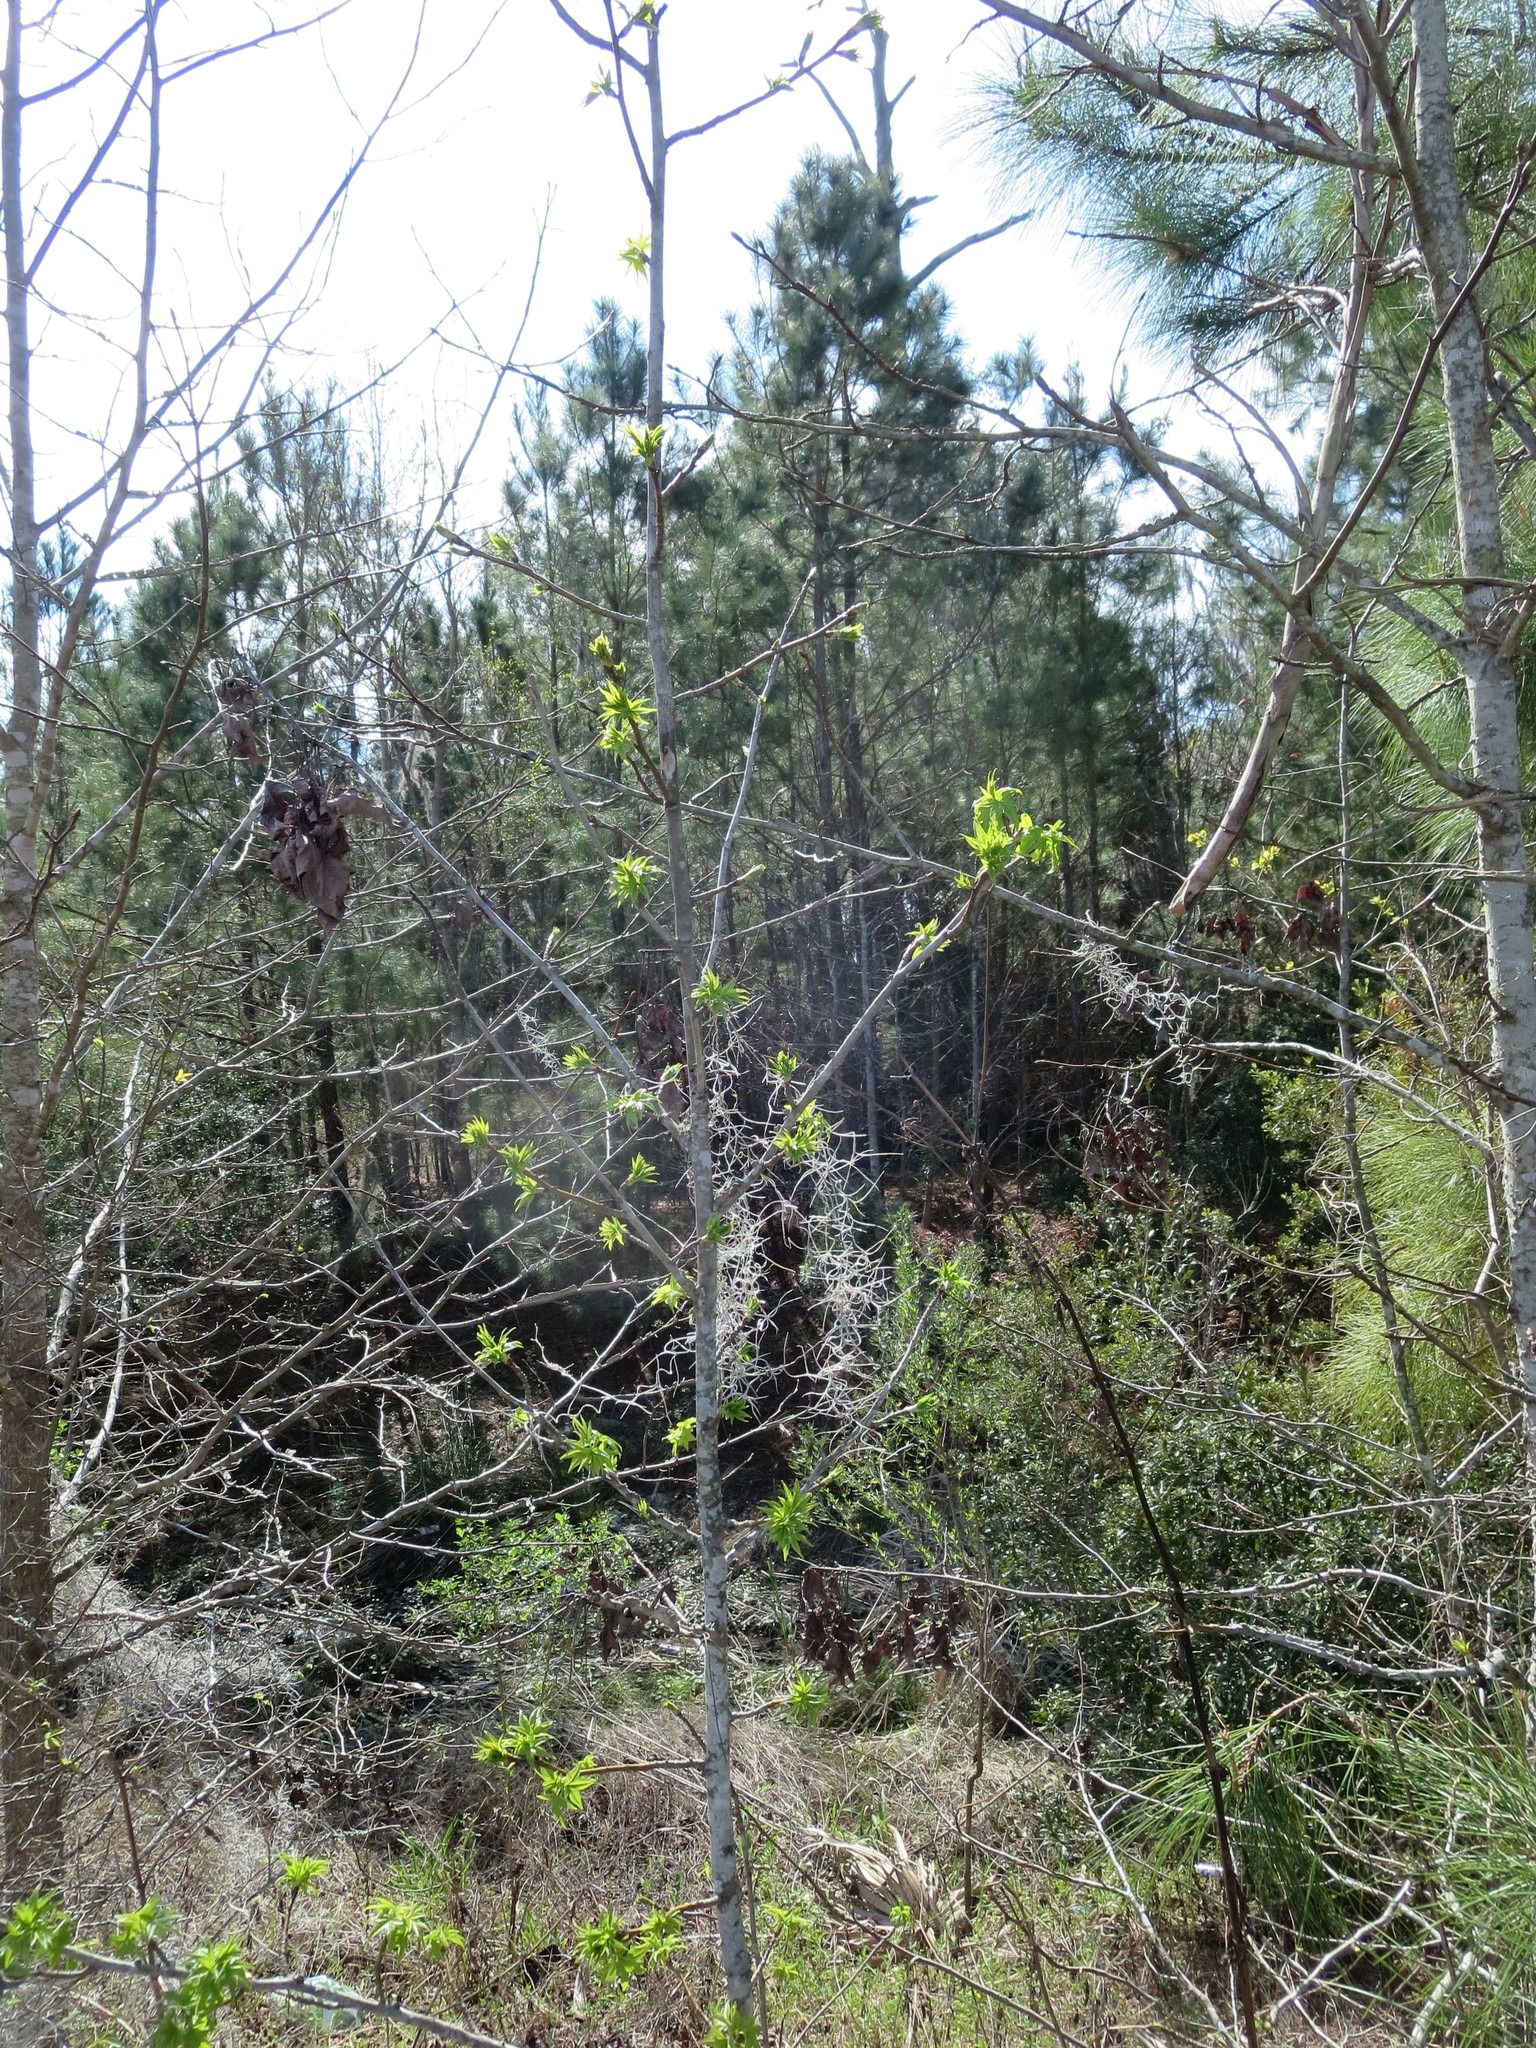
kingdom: Plantae
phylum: Tracheophyta
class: Magnoliopsida
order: Saxifragales
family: Altingiaceae
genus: Liquidambar
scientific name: Liquidambar styraciflua
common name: Sweet gum
